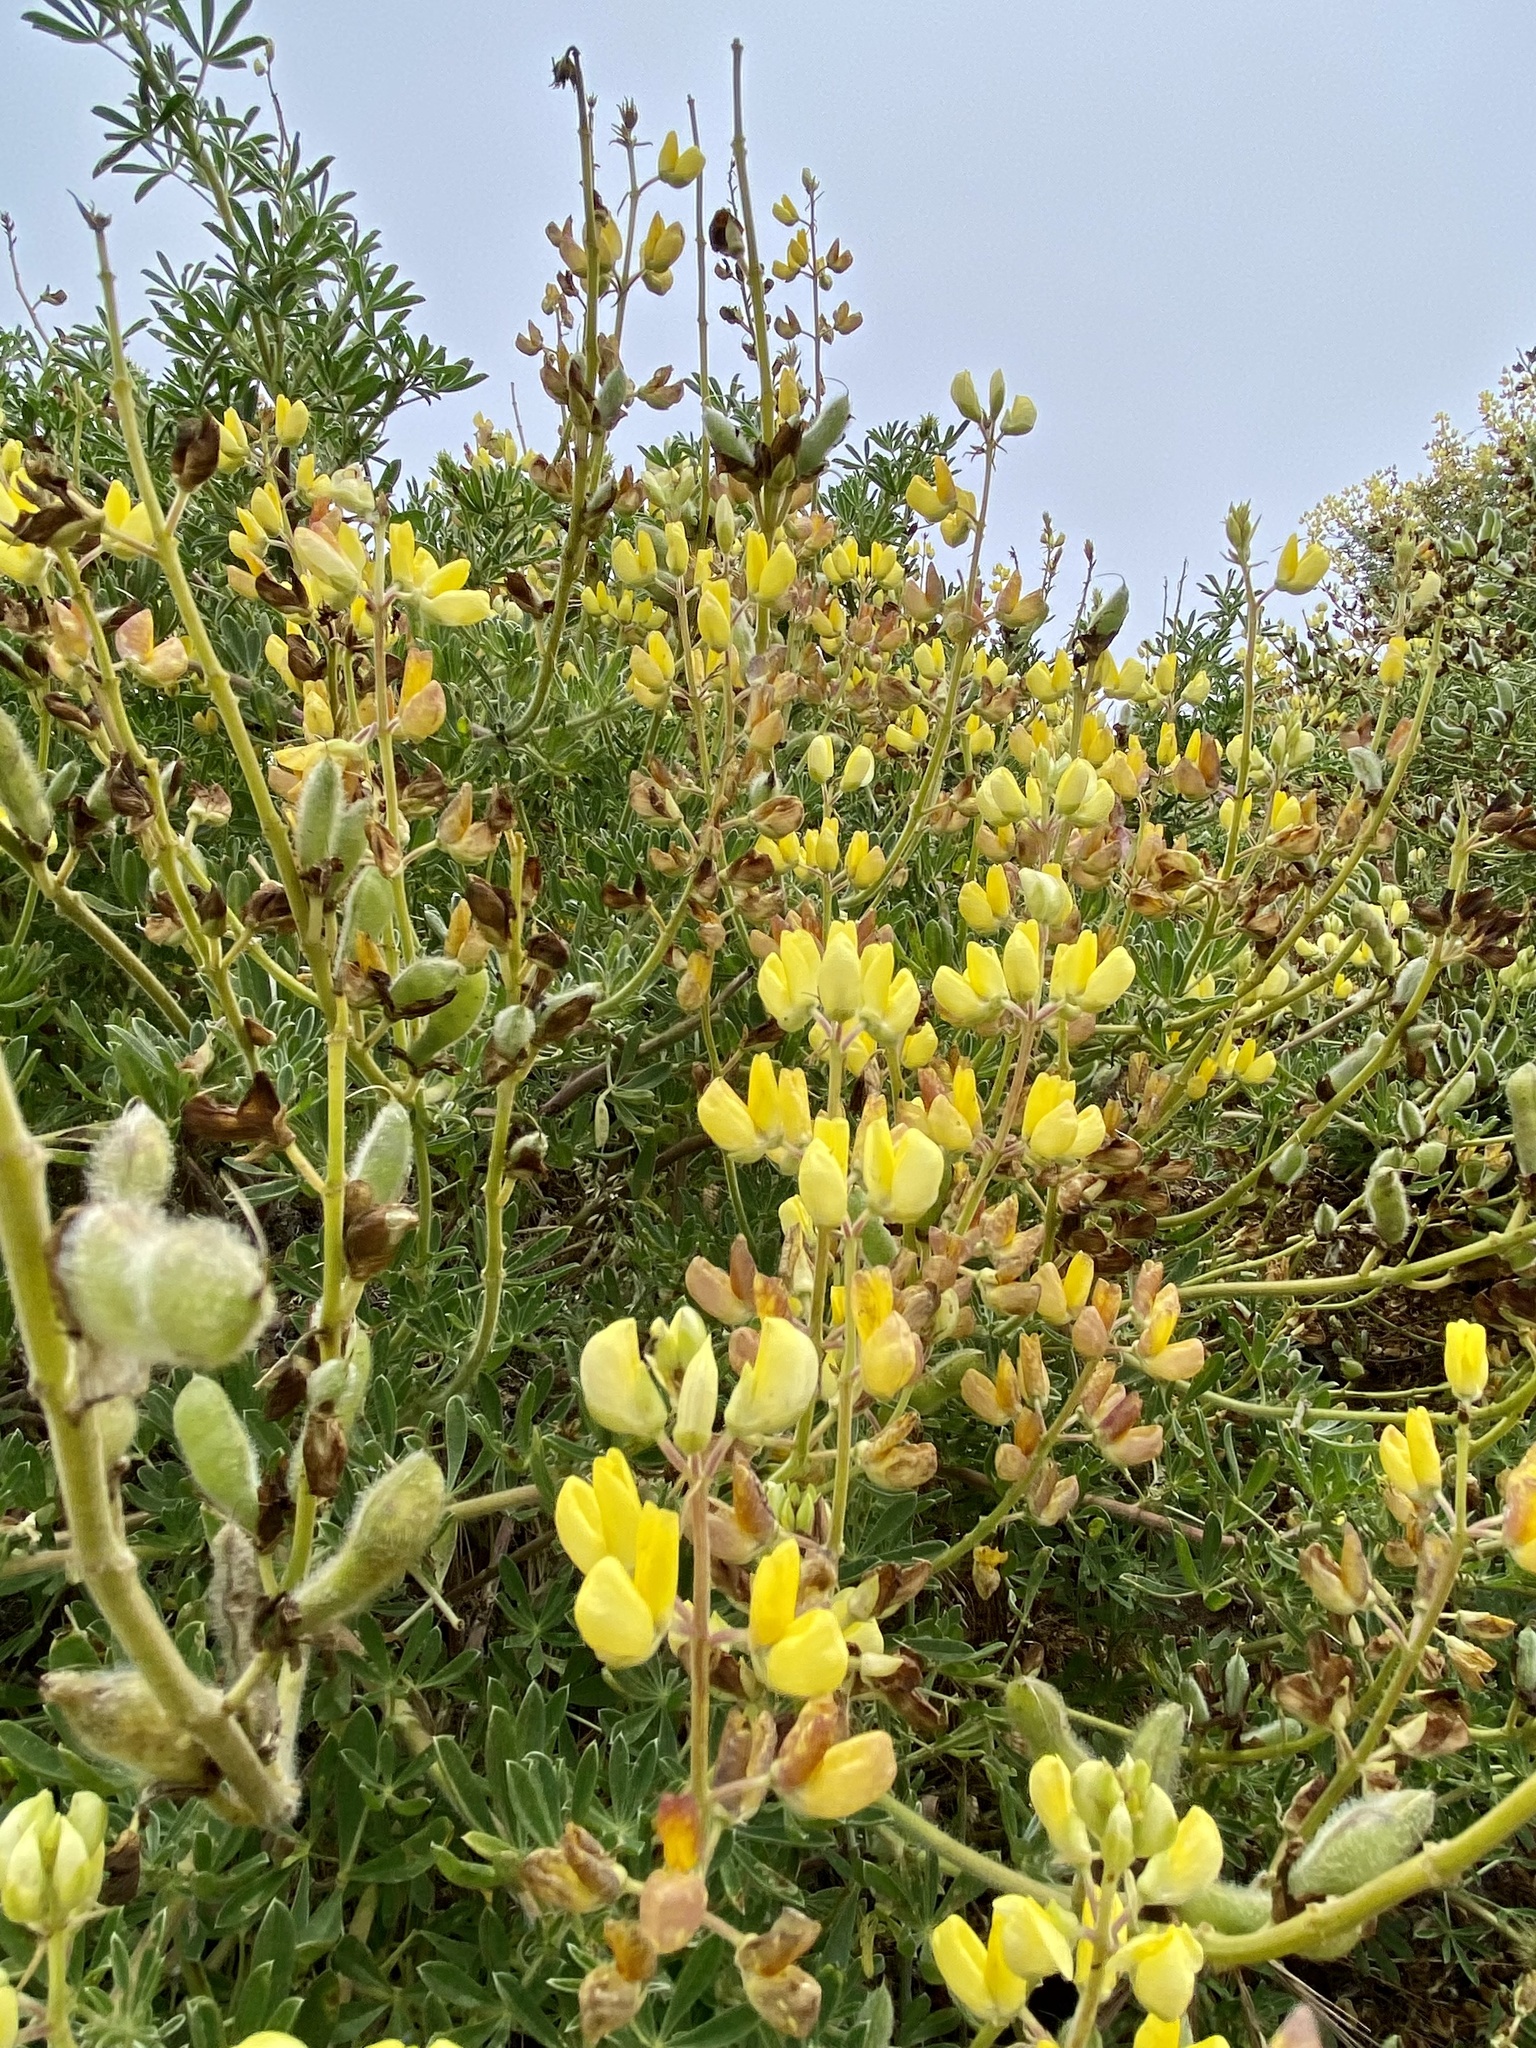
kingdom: Plantae
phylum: Tracheophyta
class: Magnoliopsida
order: Fabales
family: Fabaceae
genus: Lupinus
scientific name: Lupinus arboreus
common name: Yellow bush lupine
